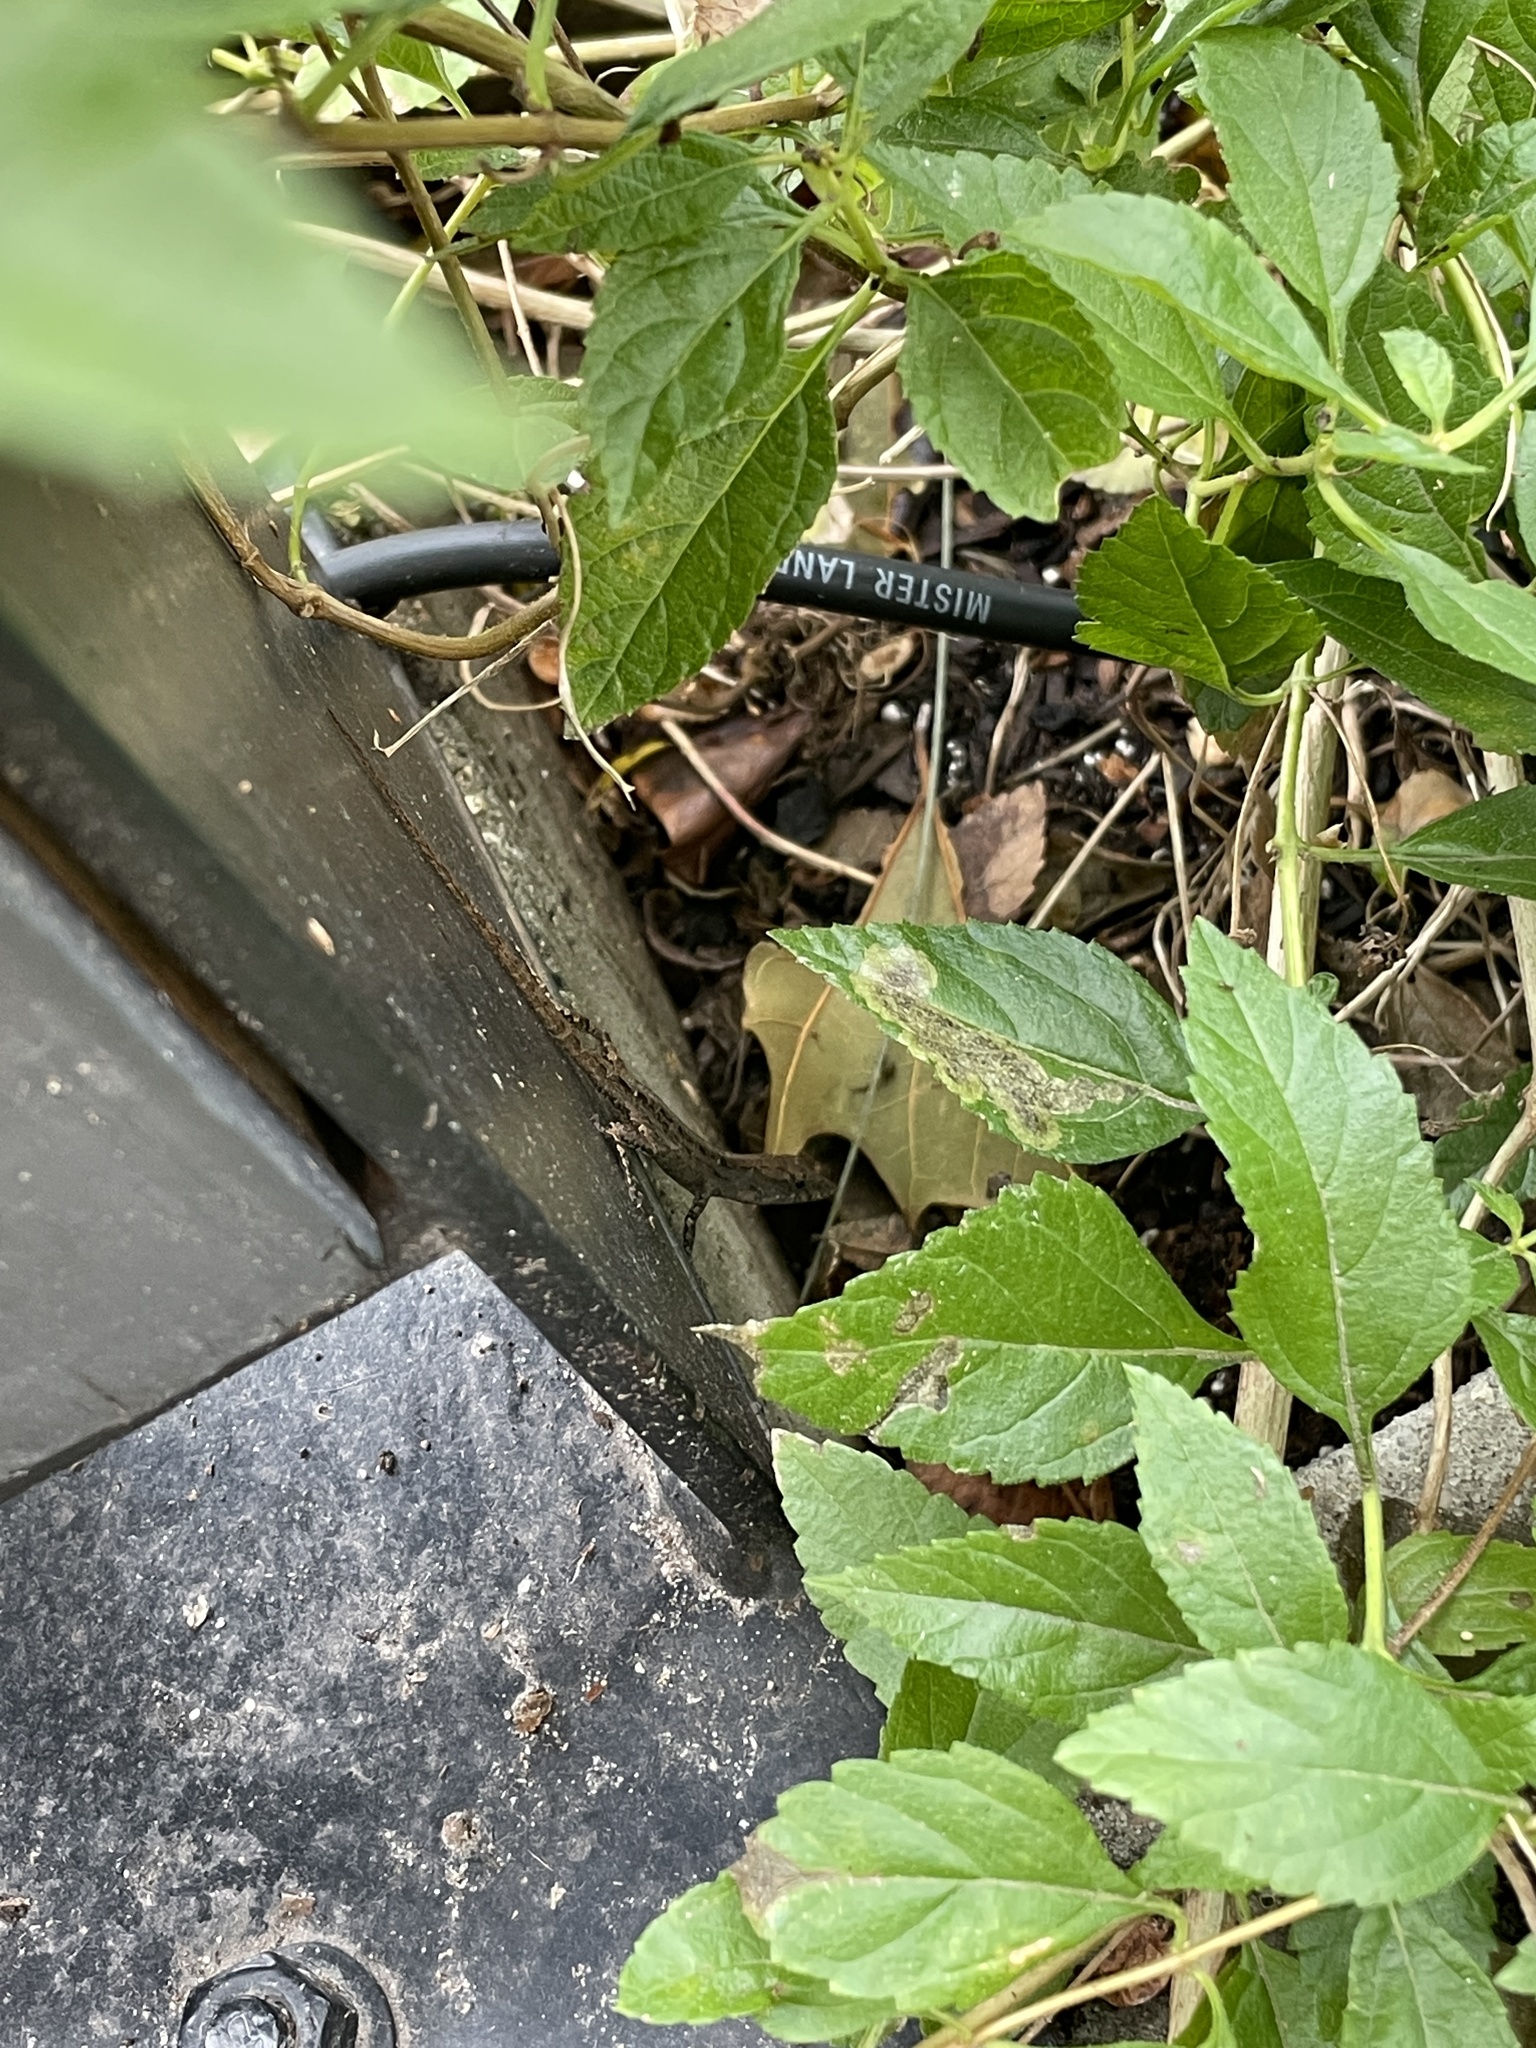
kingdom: Animalia
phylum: Chordata
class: Squamata
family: Dactyloidae
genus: Anolis
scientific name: Anolis sagrei
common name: Brown anole
